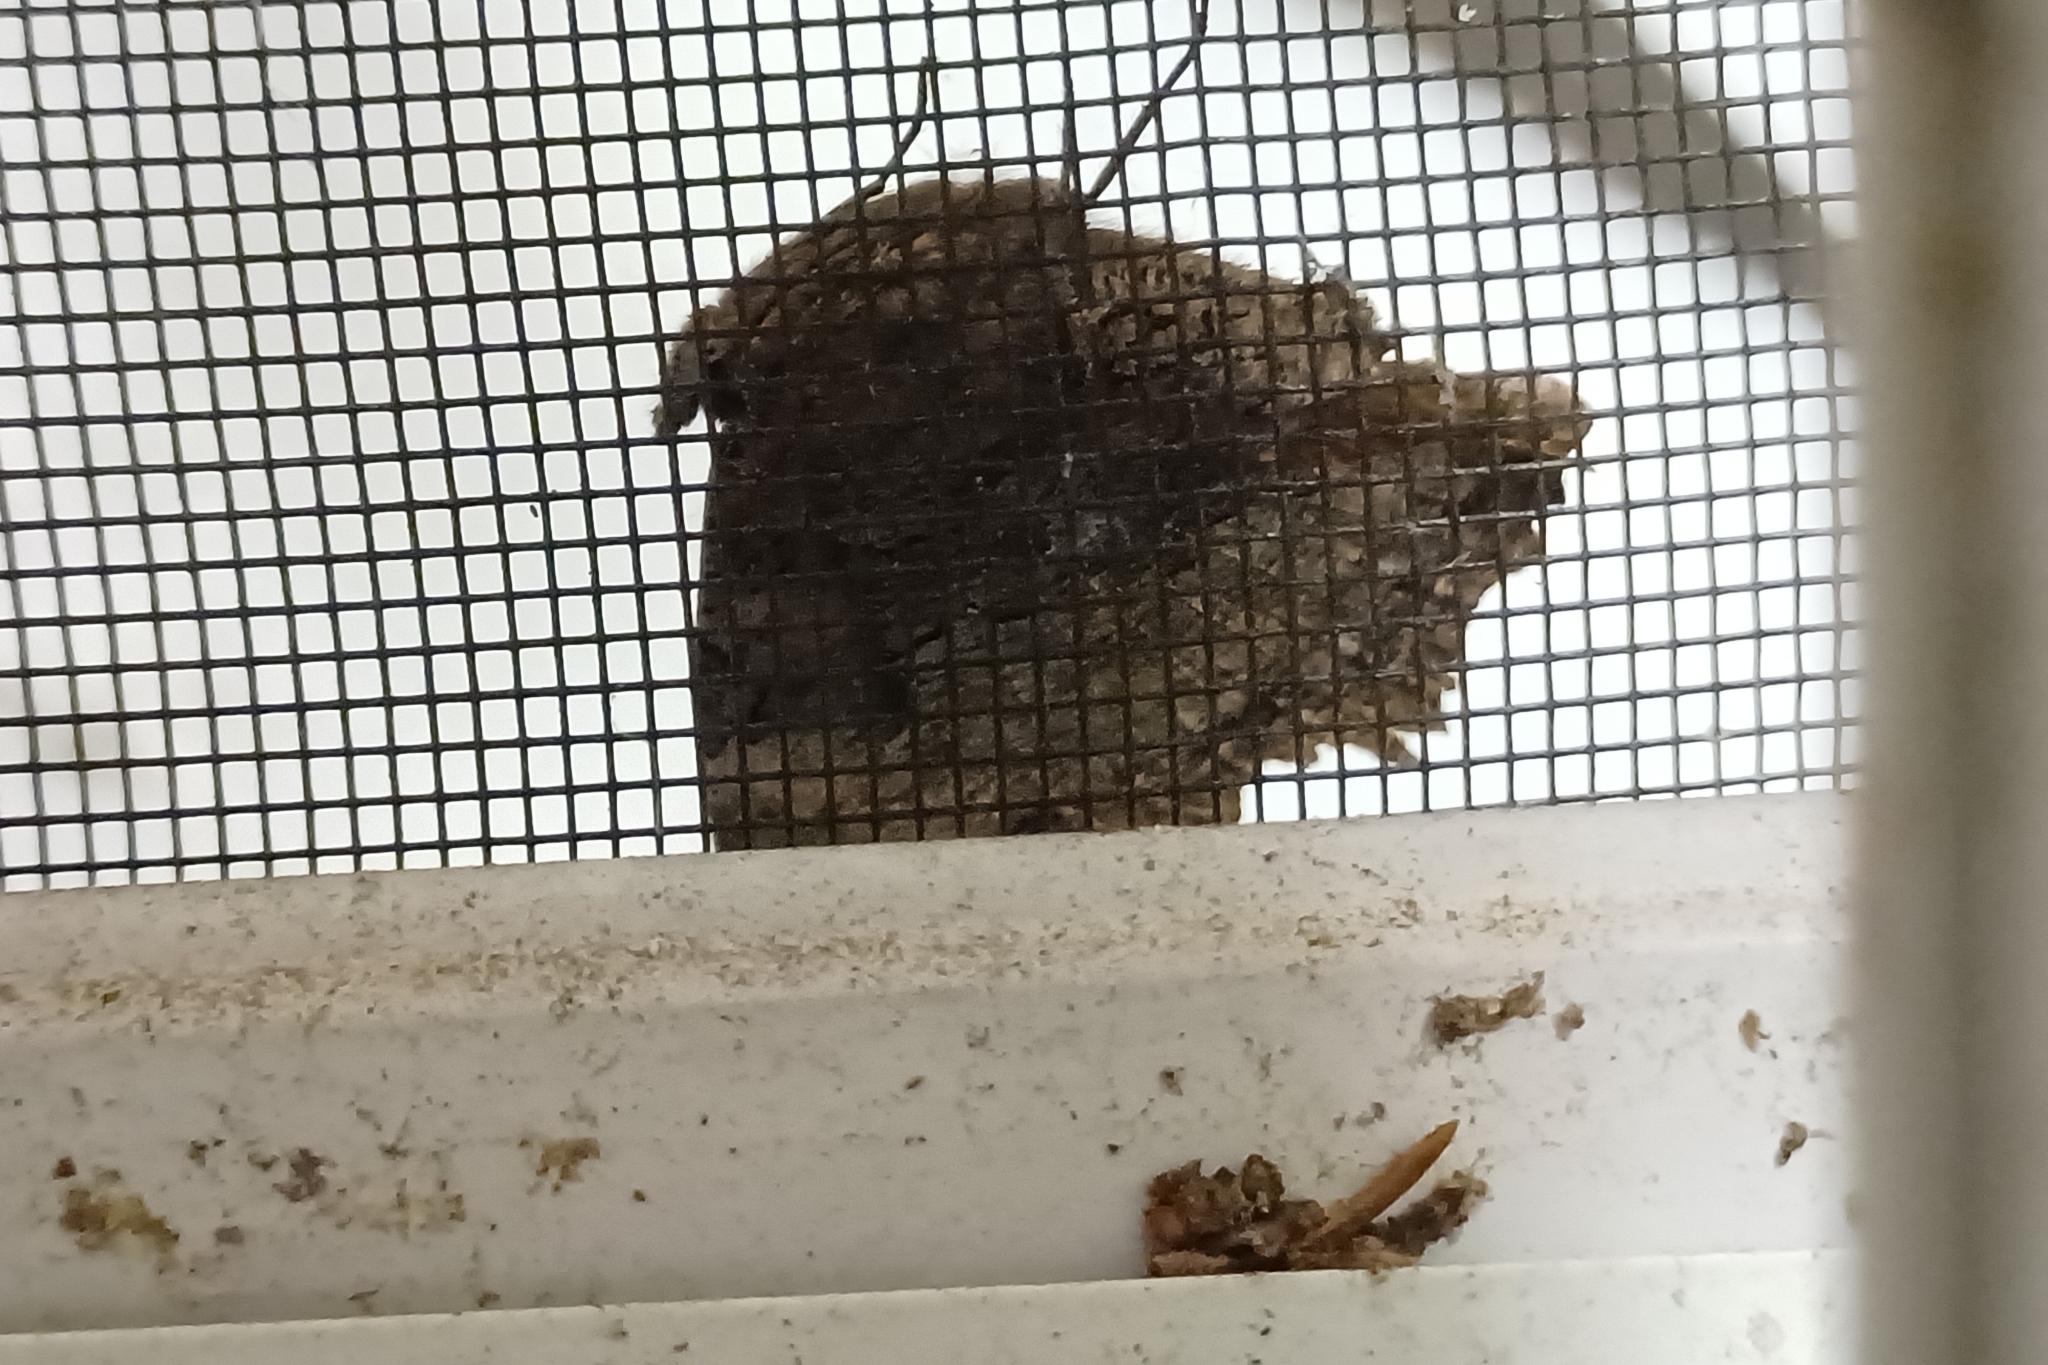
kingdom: Animalia
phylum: Arthropoda
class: Insecta
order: Lepidoptera
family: Nymphalidae
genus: Polygonia
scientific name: Polygonia vaualbum
